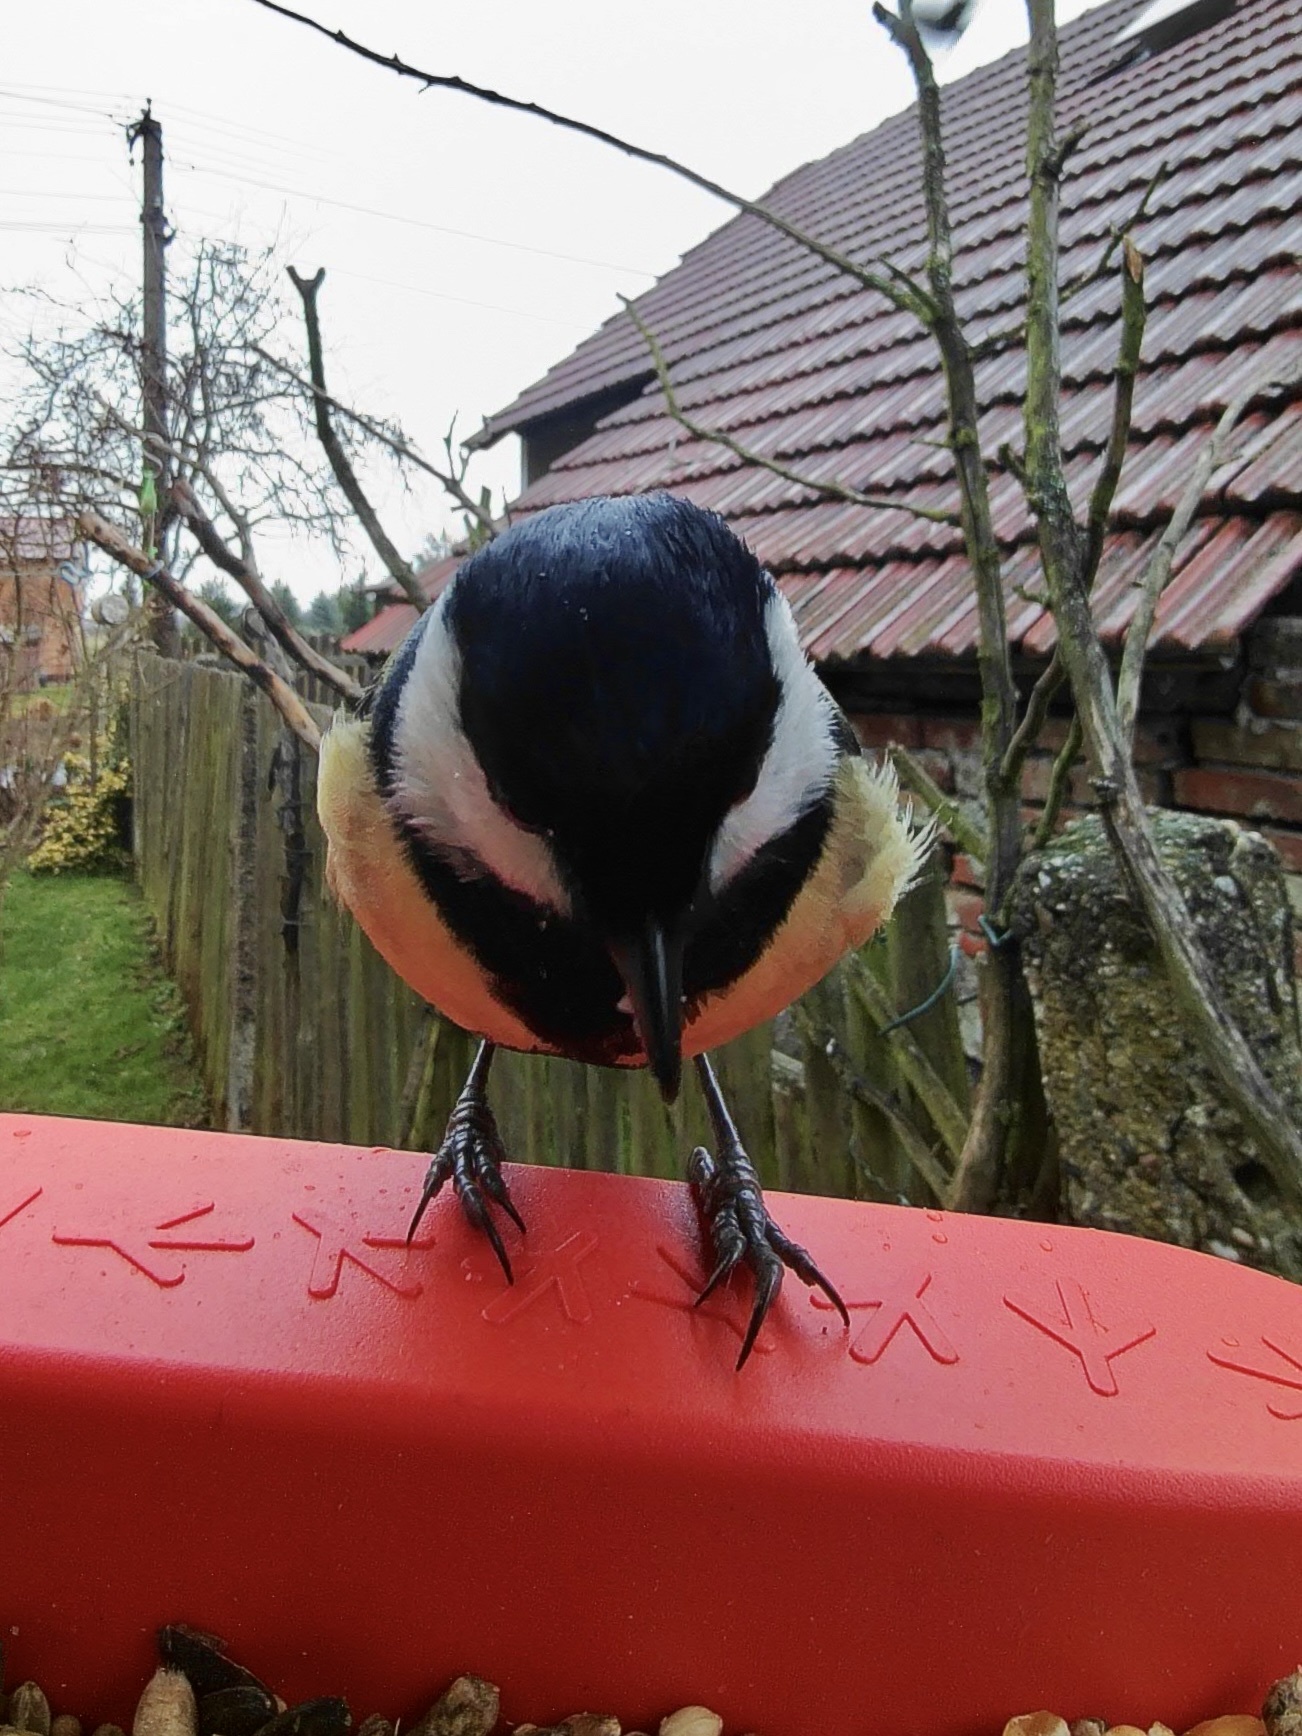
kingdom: Animalia
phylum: Chordata
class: Aves
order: Passeriformes
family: Paridae
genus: Parus
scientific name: Parus major
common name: Great tit
